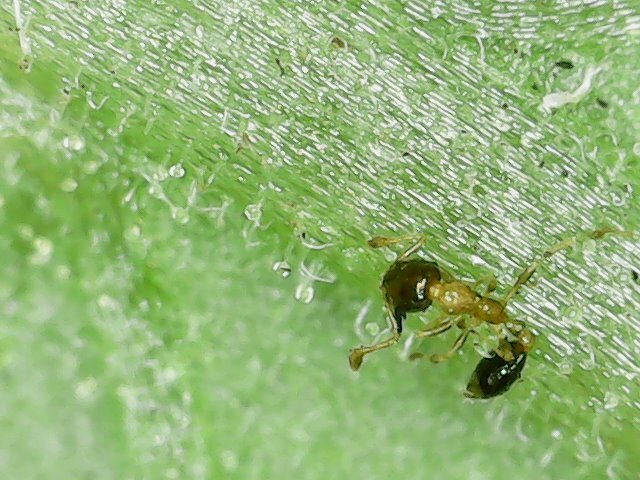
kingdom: Animalia
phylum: Arthropoda
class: Insecta
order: Hymenoptera
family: Formicidae
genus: Monomorium
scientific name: Monomorium floricola
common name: Bicolored trailing ant
